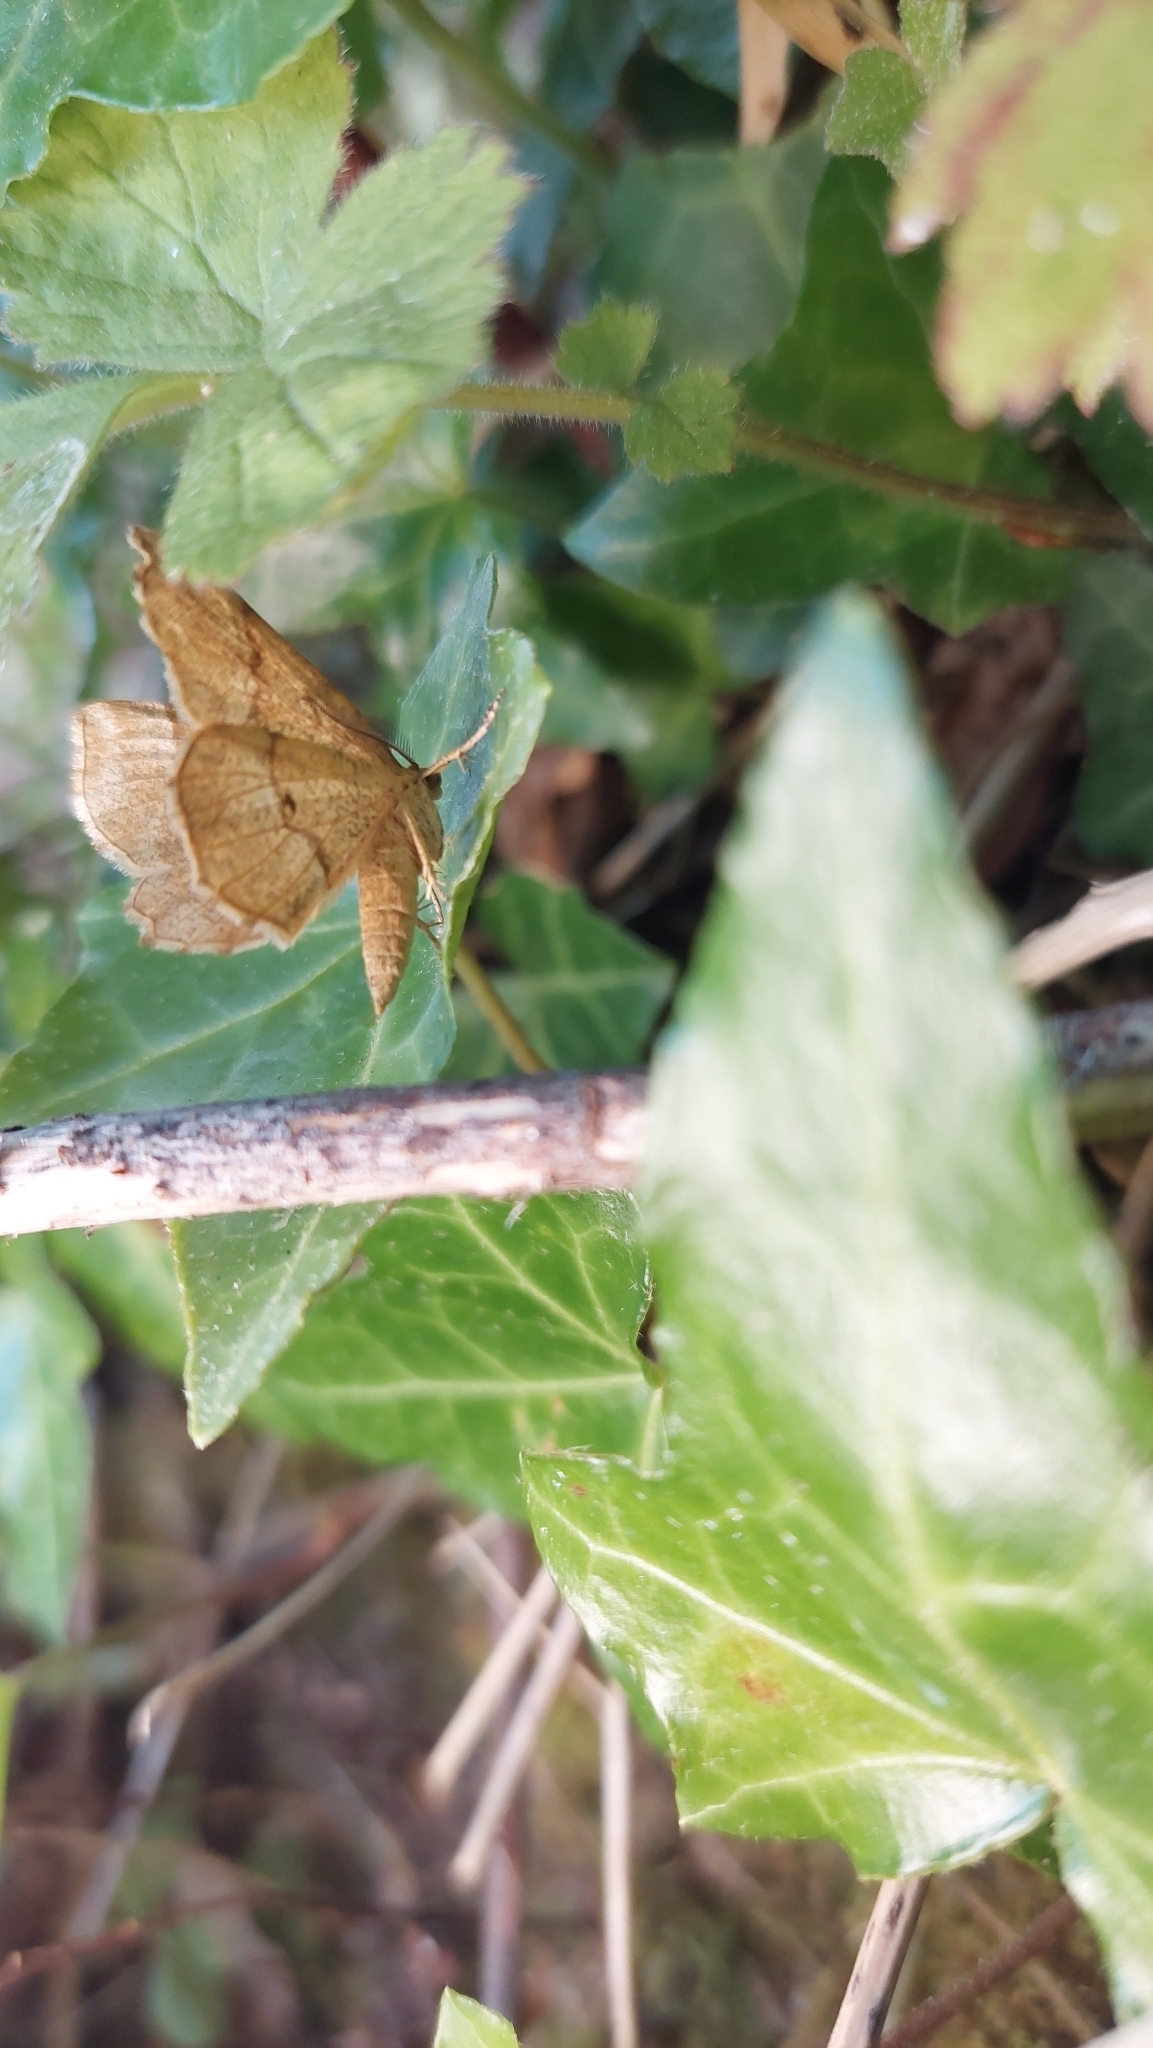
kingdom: Animalia
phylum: Arthropoda
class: Insecta
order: Lepidoptera
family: Geometridae
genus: Cepphis
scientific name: Cepphis advenaria
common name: Little thorn
